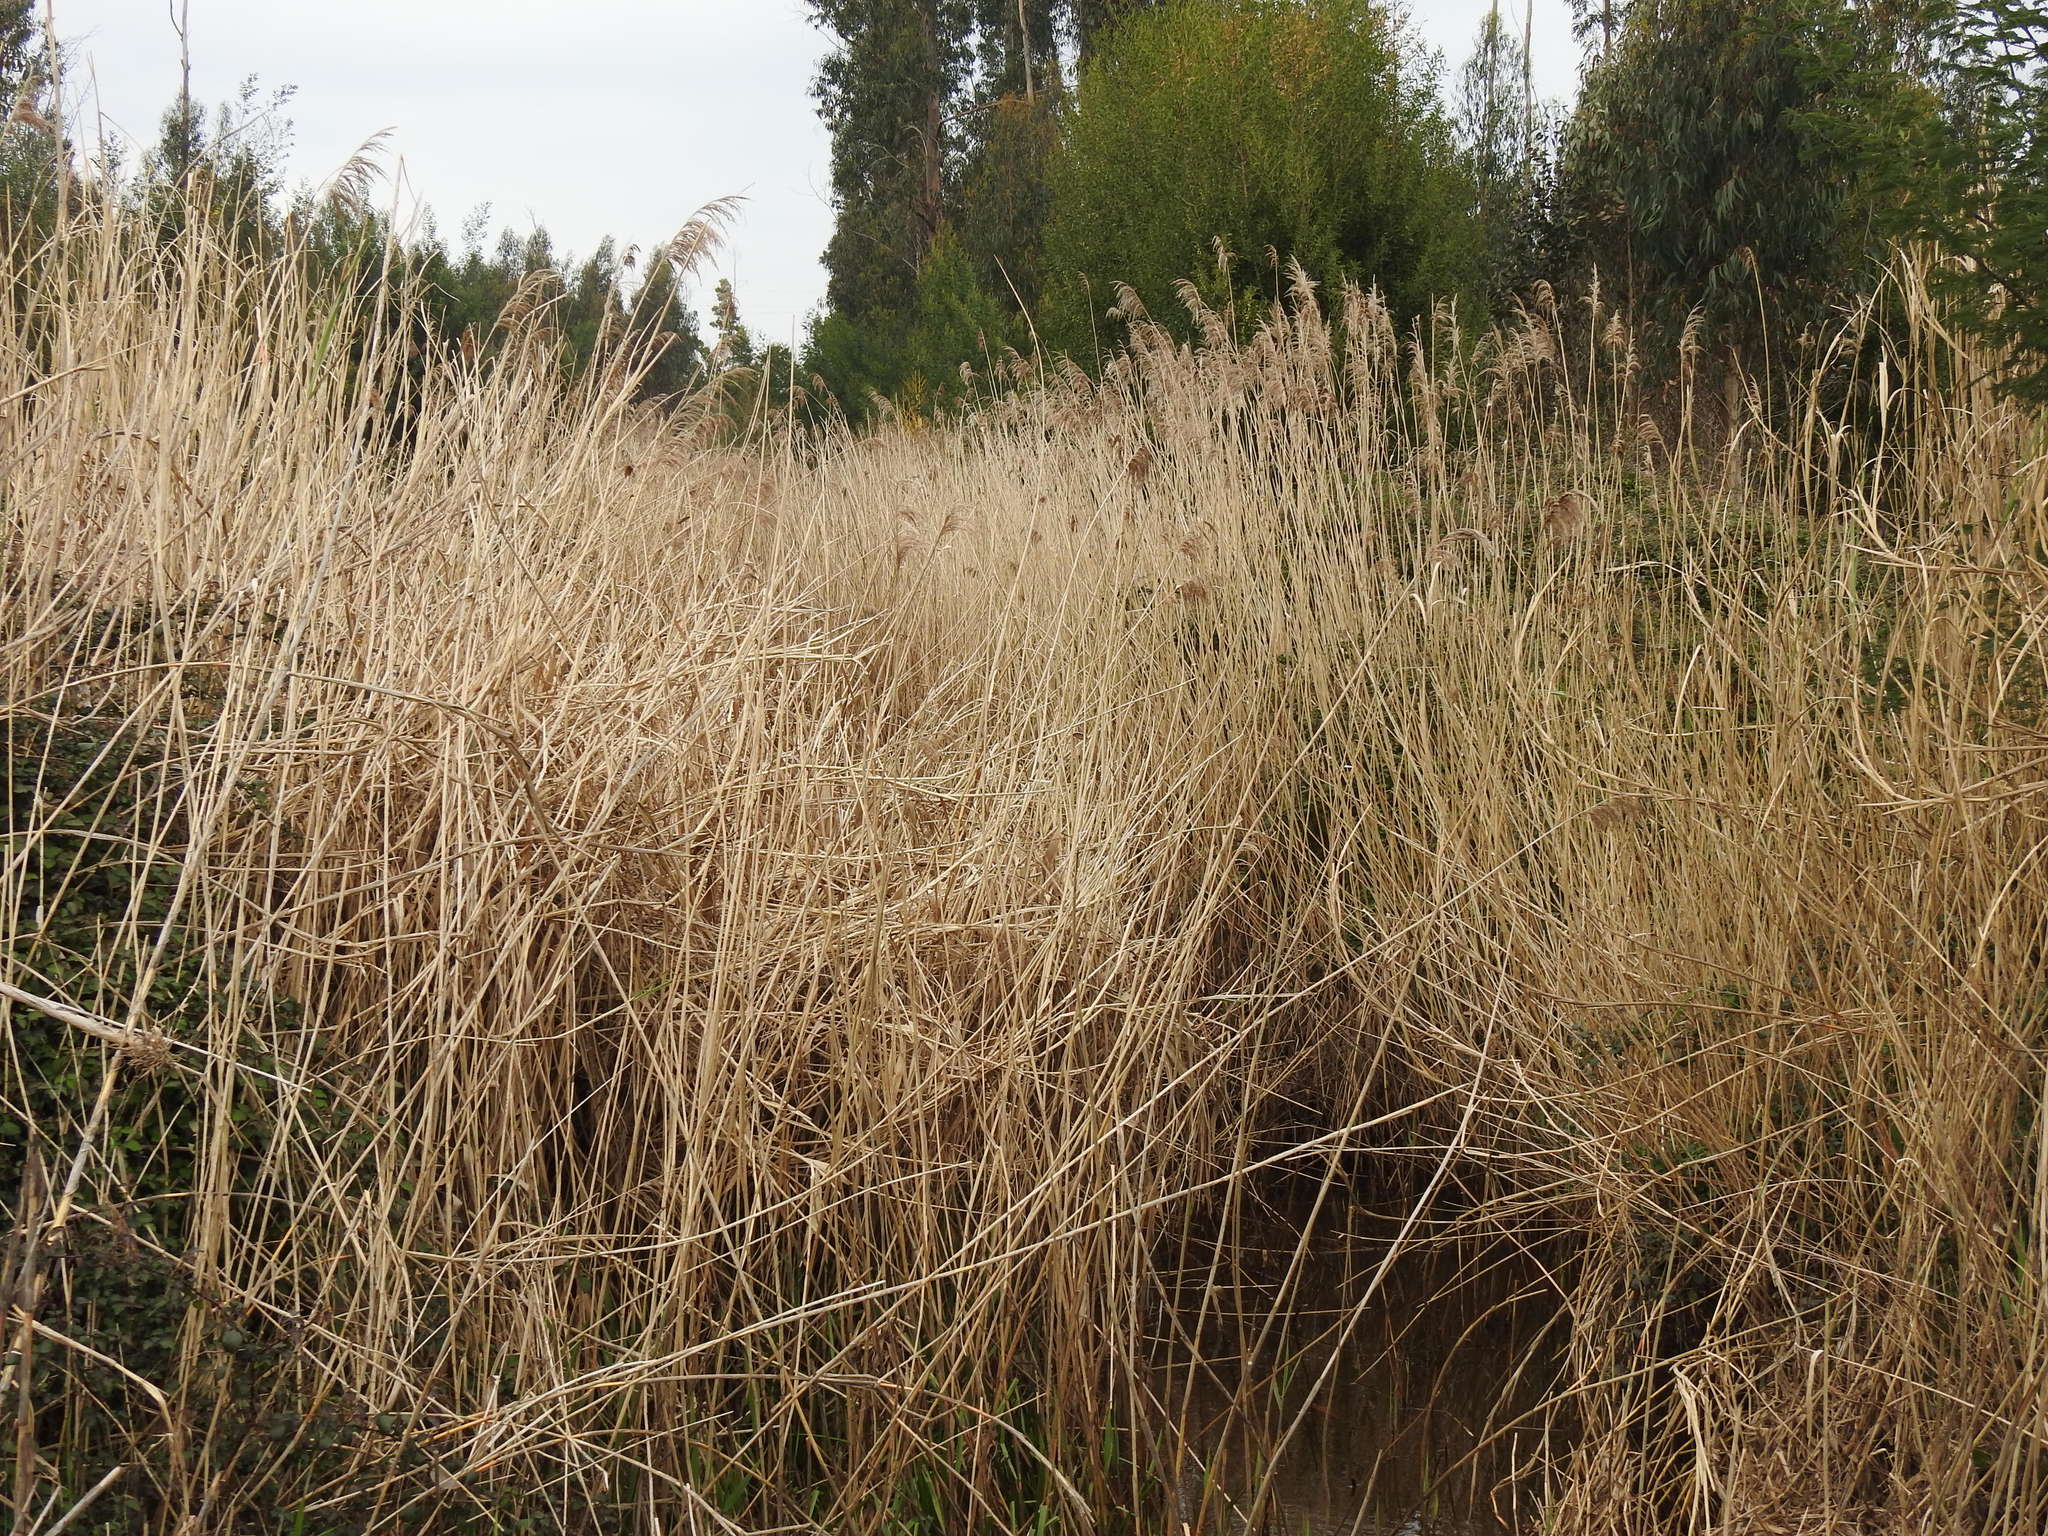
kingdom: Plantae
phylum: Tracheophyta
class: Liliopsida
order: Poales
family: Poaceae
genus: Phragmites
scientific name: Phragmites australis
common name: Common reed
